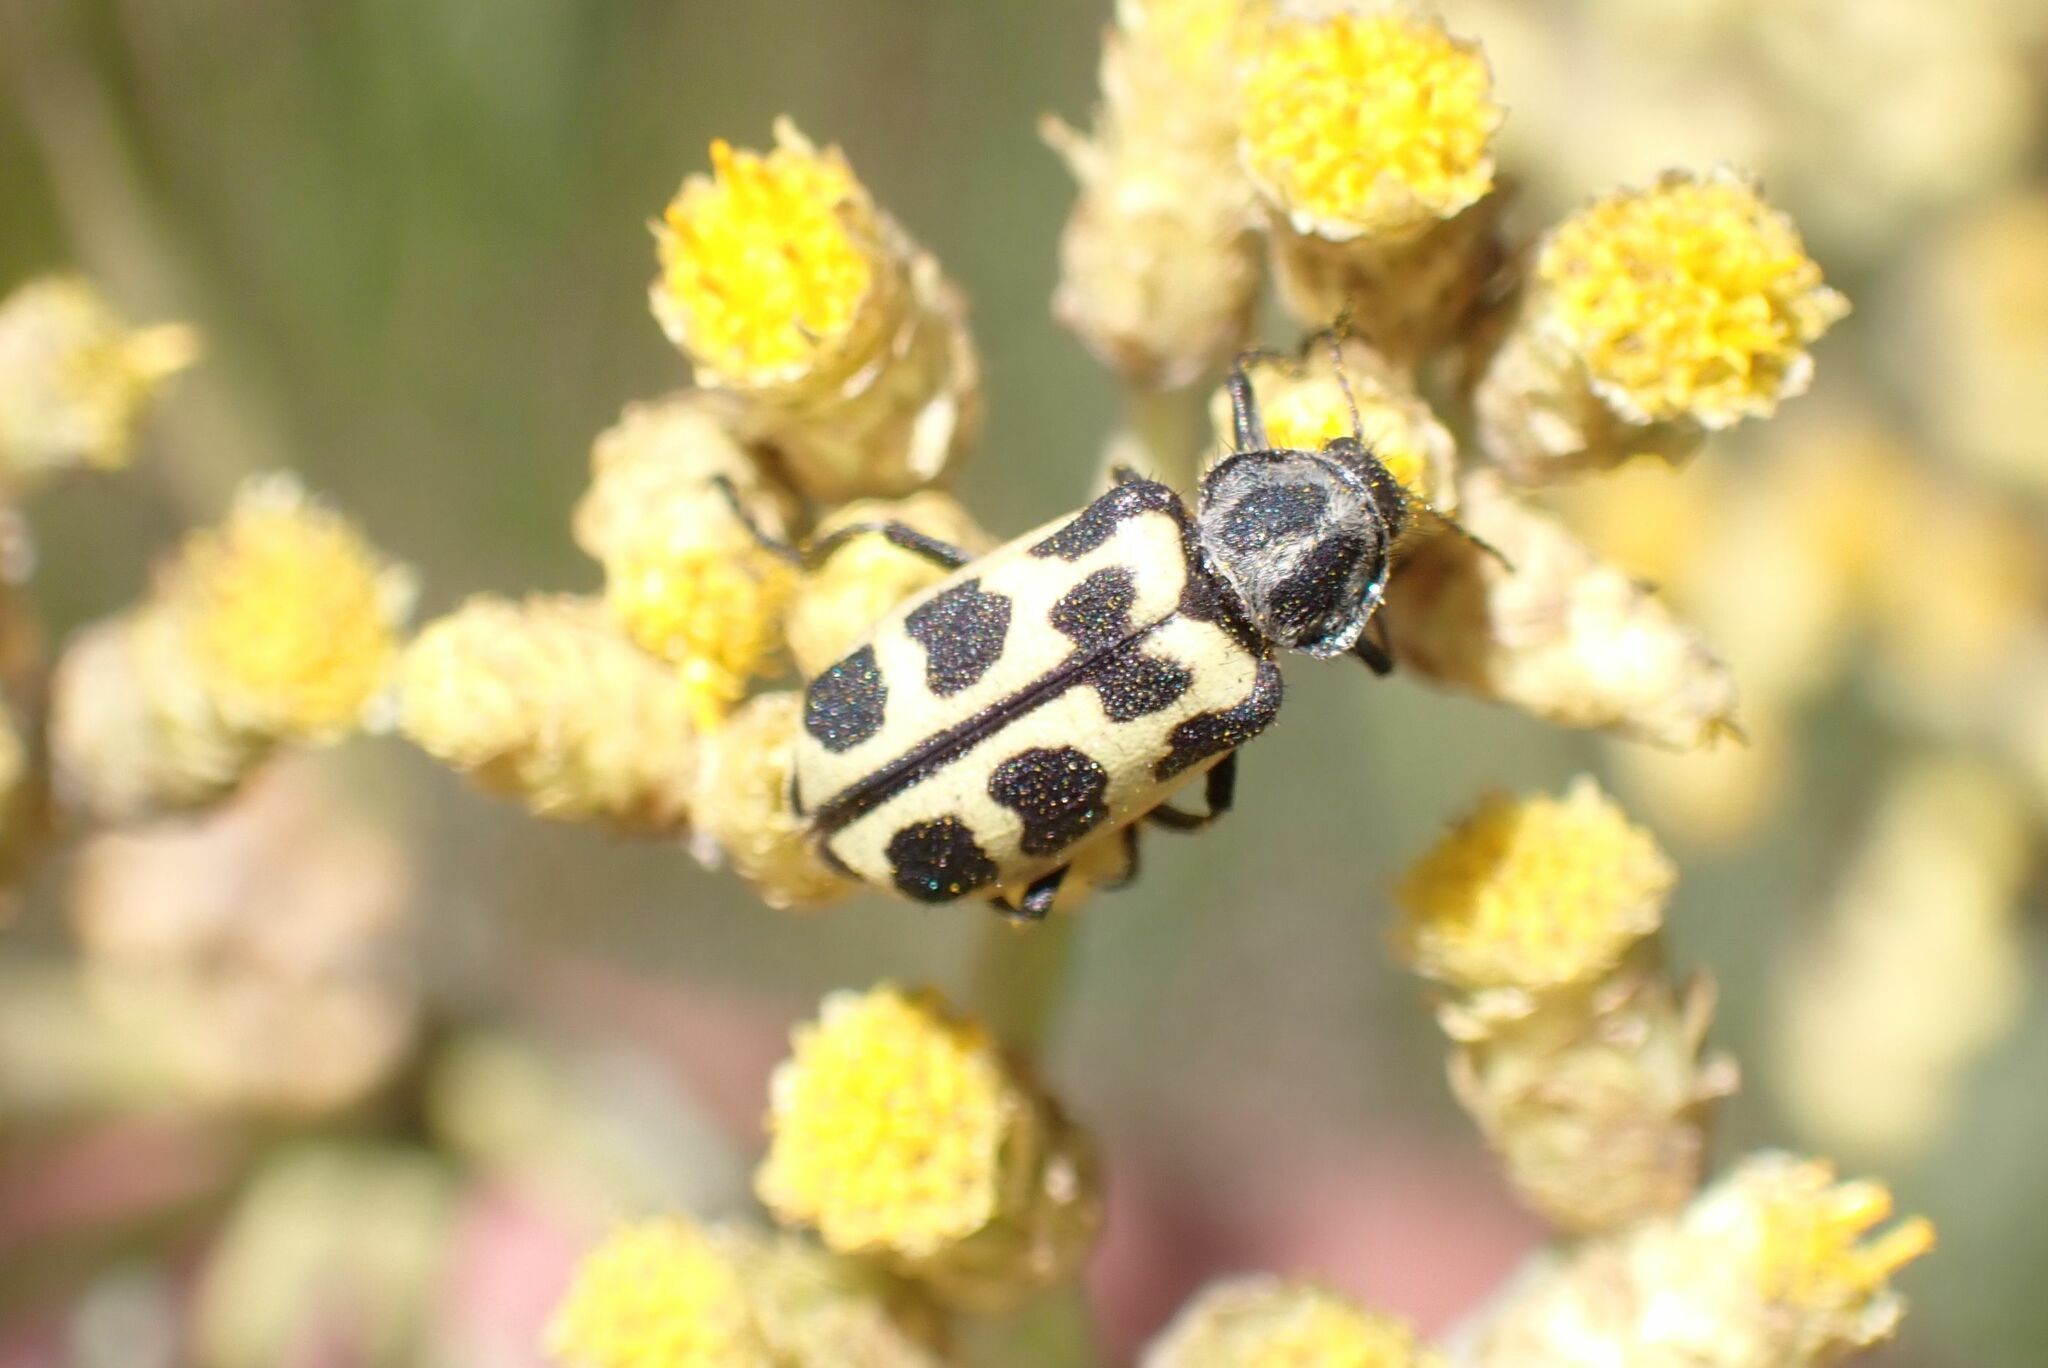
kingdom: Animalia
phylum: Arthropoda
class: Insecta
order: Coleoptera
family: Melyridae
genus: Astylus
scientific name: Astylus atromaculatus
